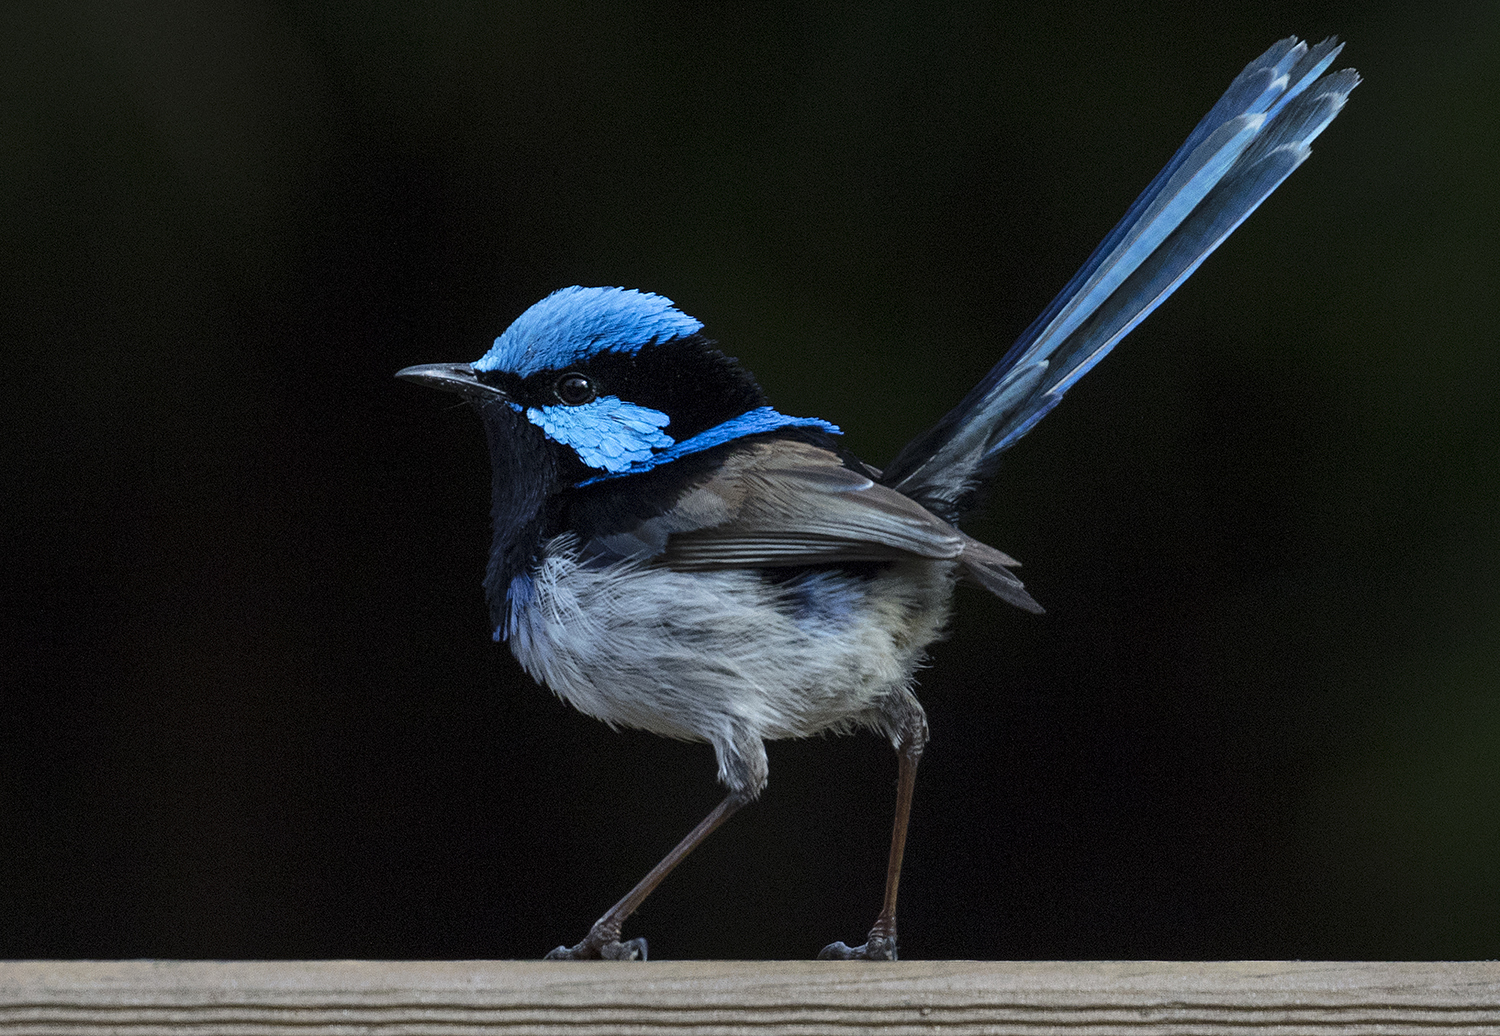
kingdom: Animalia
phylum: Chordata
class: Aves
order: Passeriformes
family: Maluridae
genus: Malurus
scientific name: Malurus cyaneus
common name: Superb fairywren
